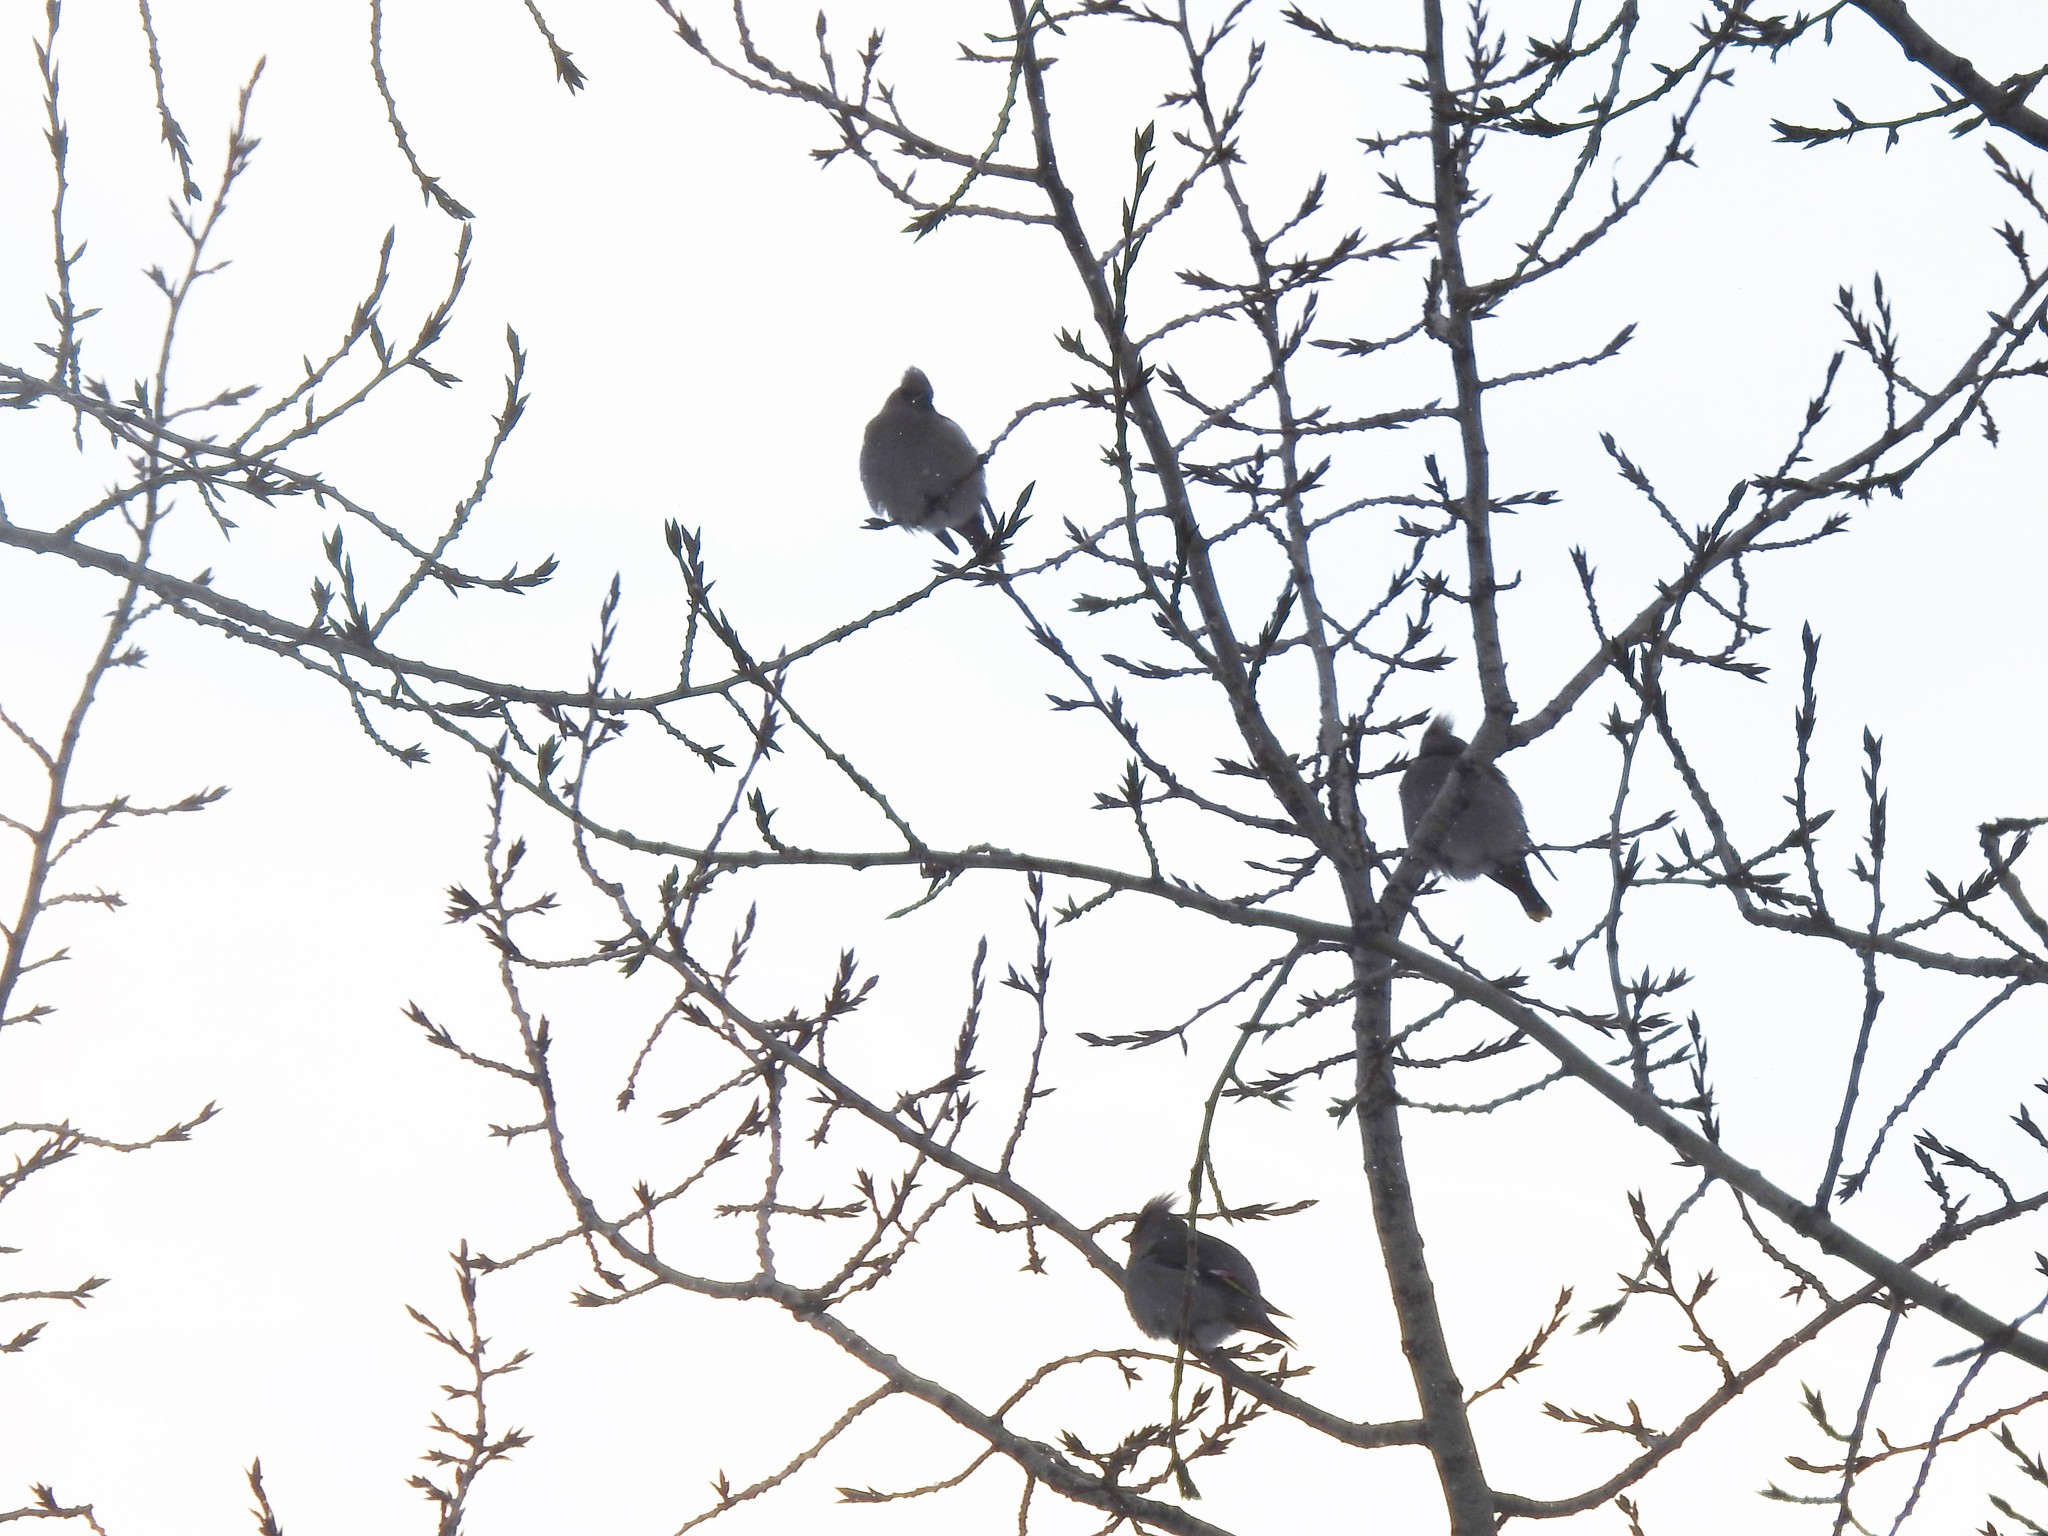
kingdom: Animalia
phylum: Chordata
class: Aves
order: Passeriformes
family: Bombycillidae
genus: Bombycilla
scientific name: Bombycilla garrulus
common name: Bohemian waxwing
